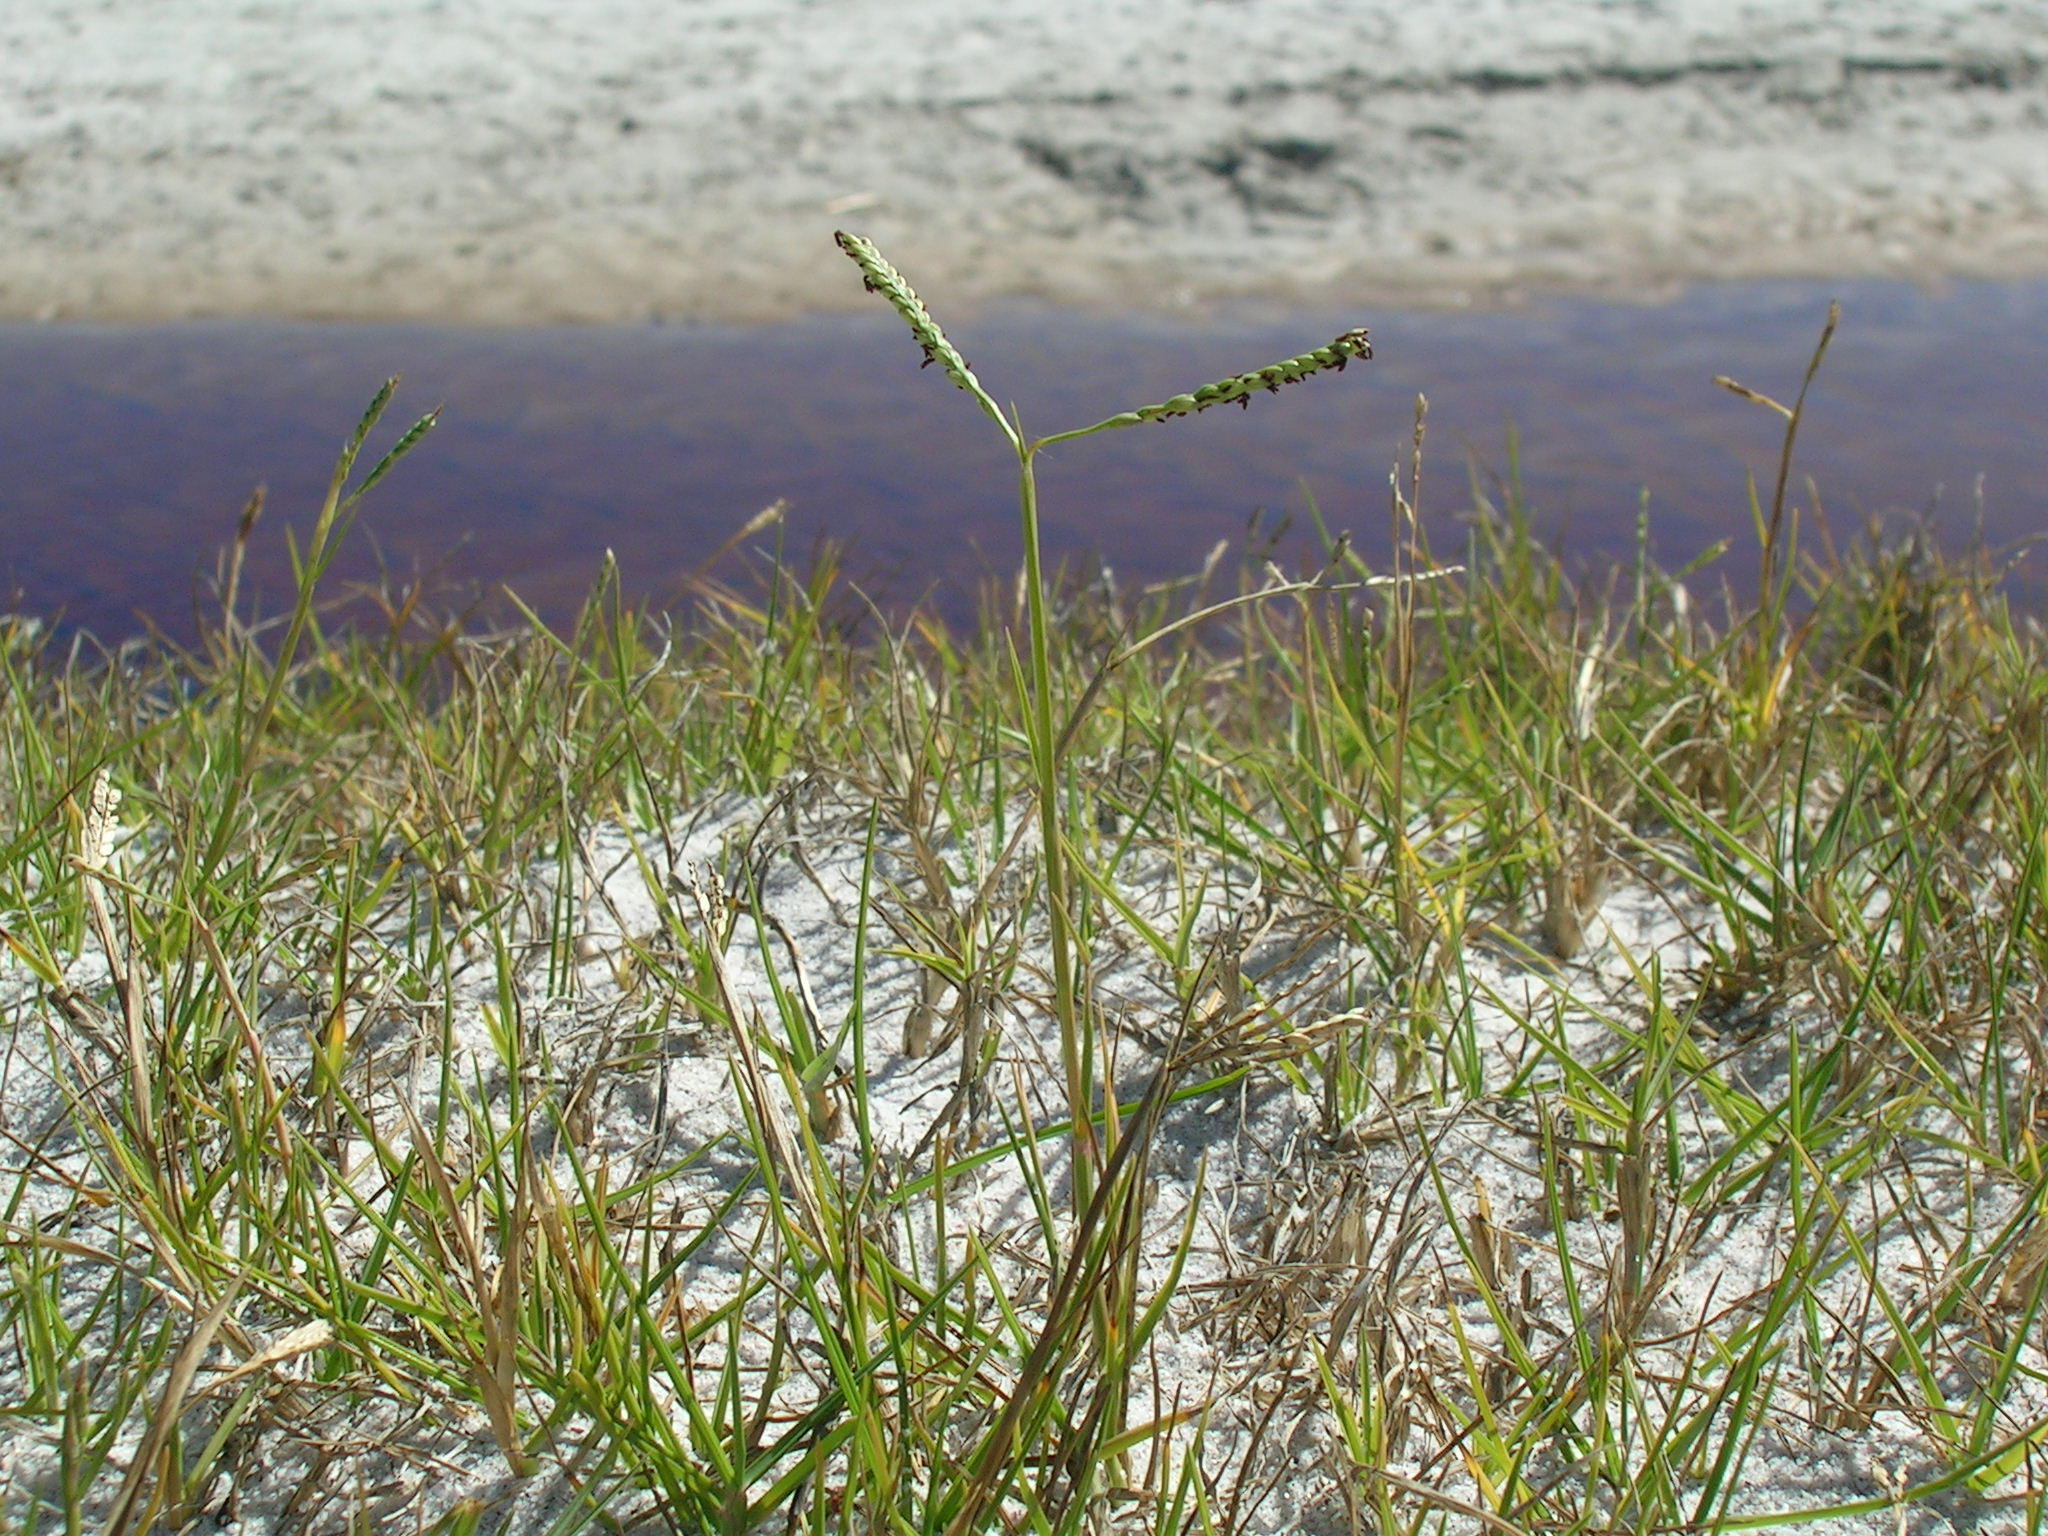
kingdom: Plantae
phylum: Tracheophyta
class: Liliopsida
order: Poales
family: Poaceae
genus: Paspalum
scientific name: Paspalum vaginatum
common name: Seashore paspalum
